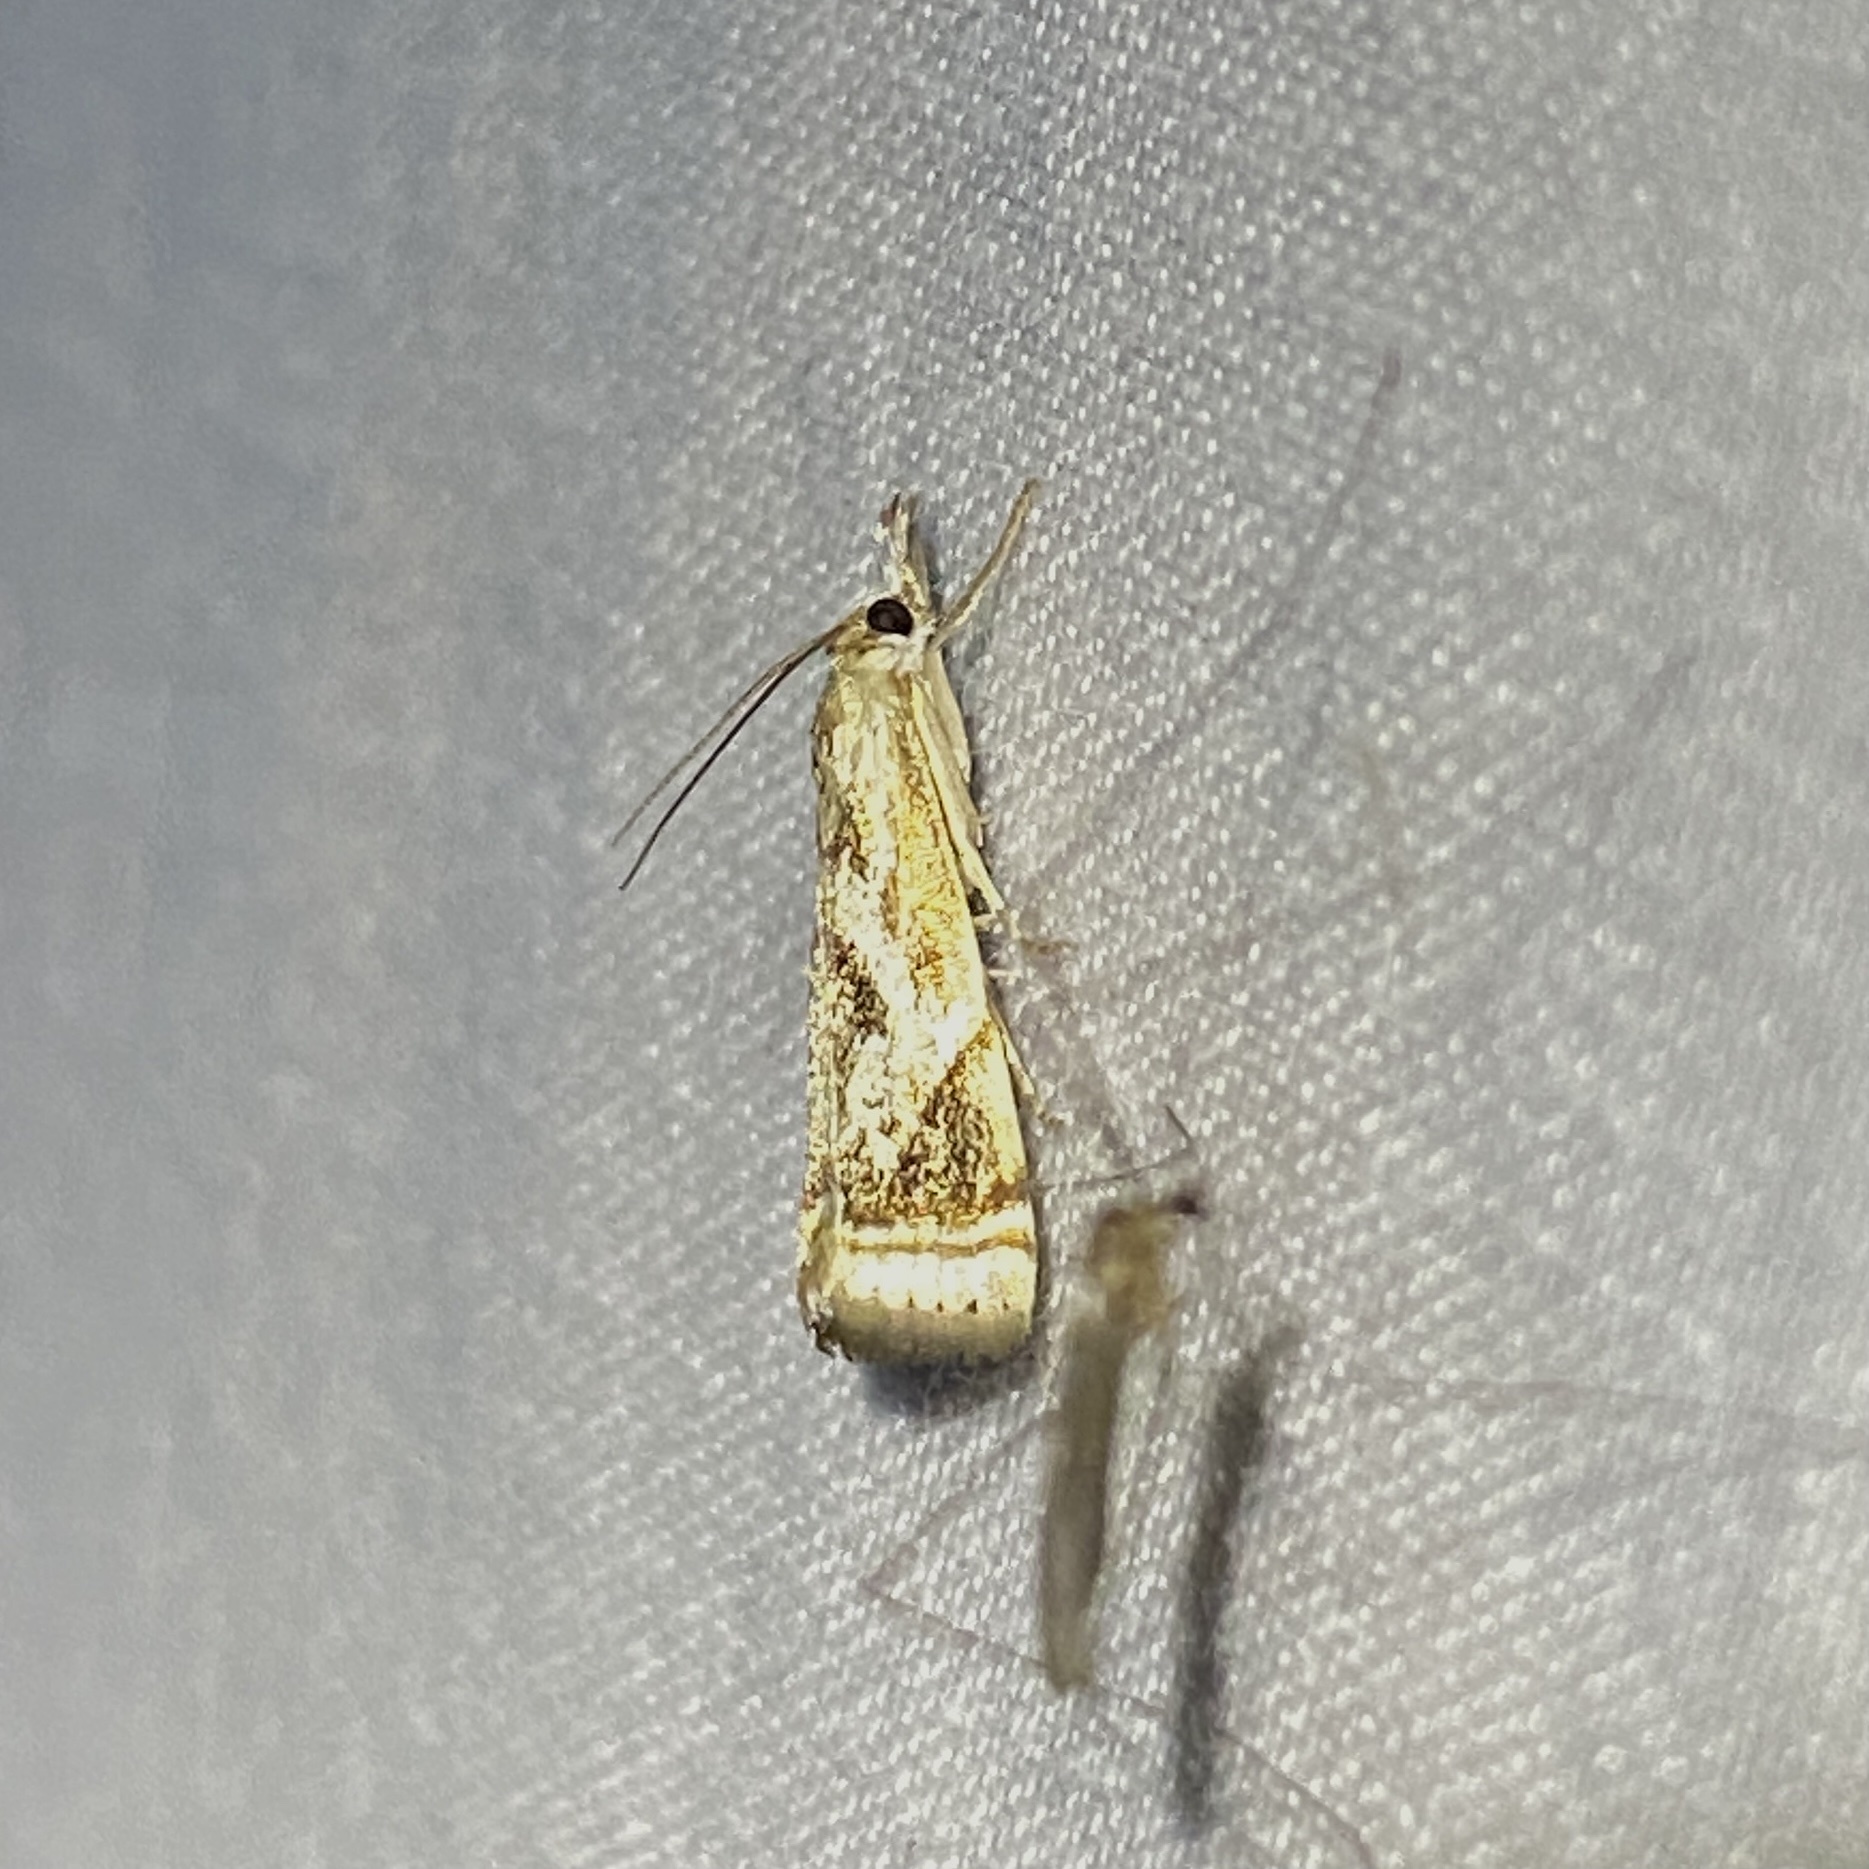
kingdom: Animalia
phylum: Arthropoda
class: Insecta
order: Lepidoptera
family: Crambidae
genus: Microcrambus
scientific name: Microcrambus elegans
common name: Elegant grass-veneer
